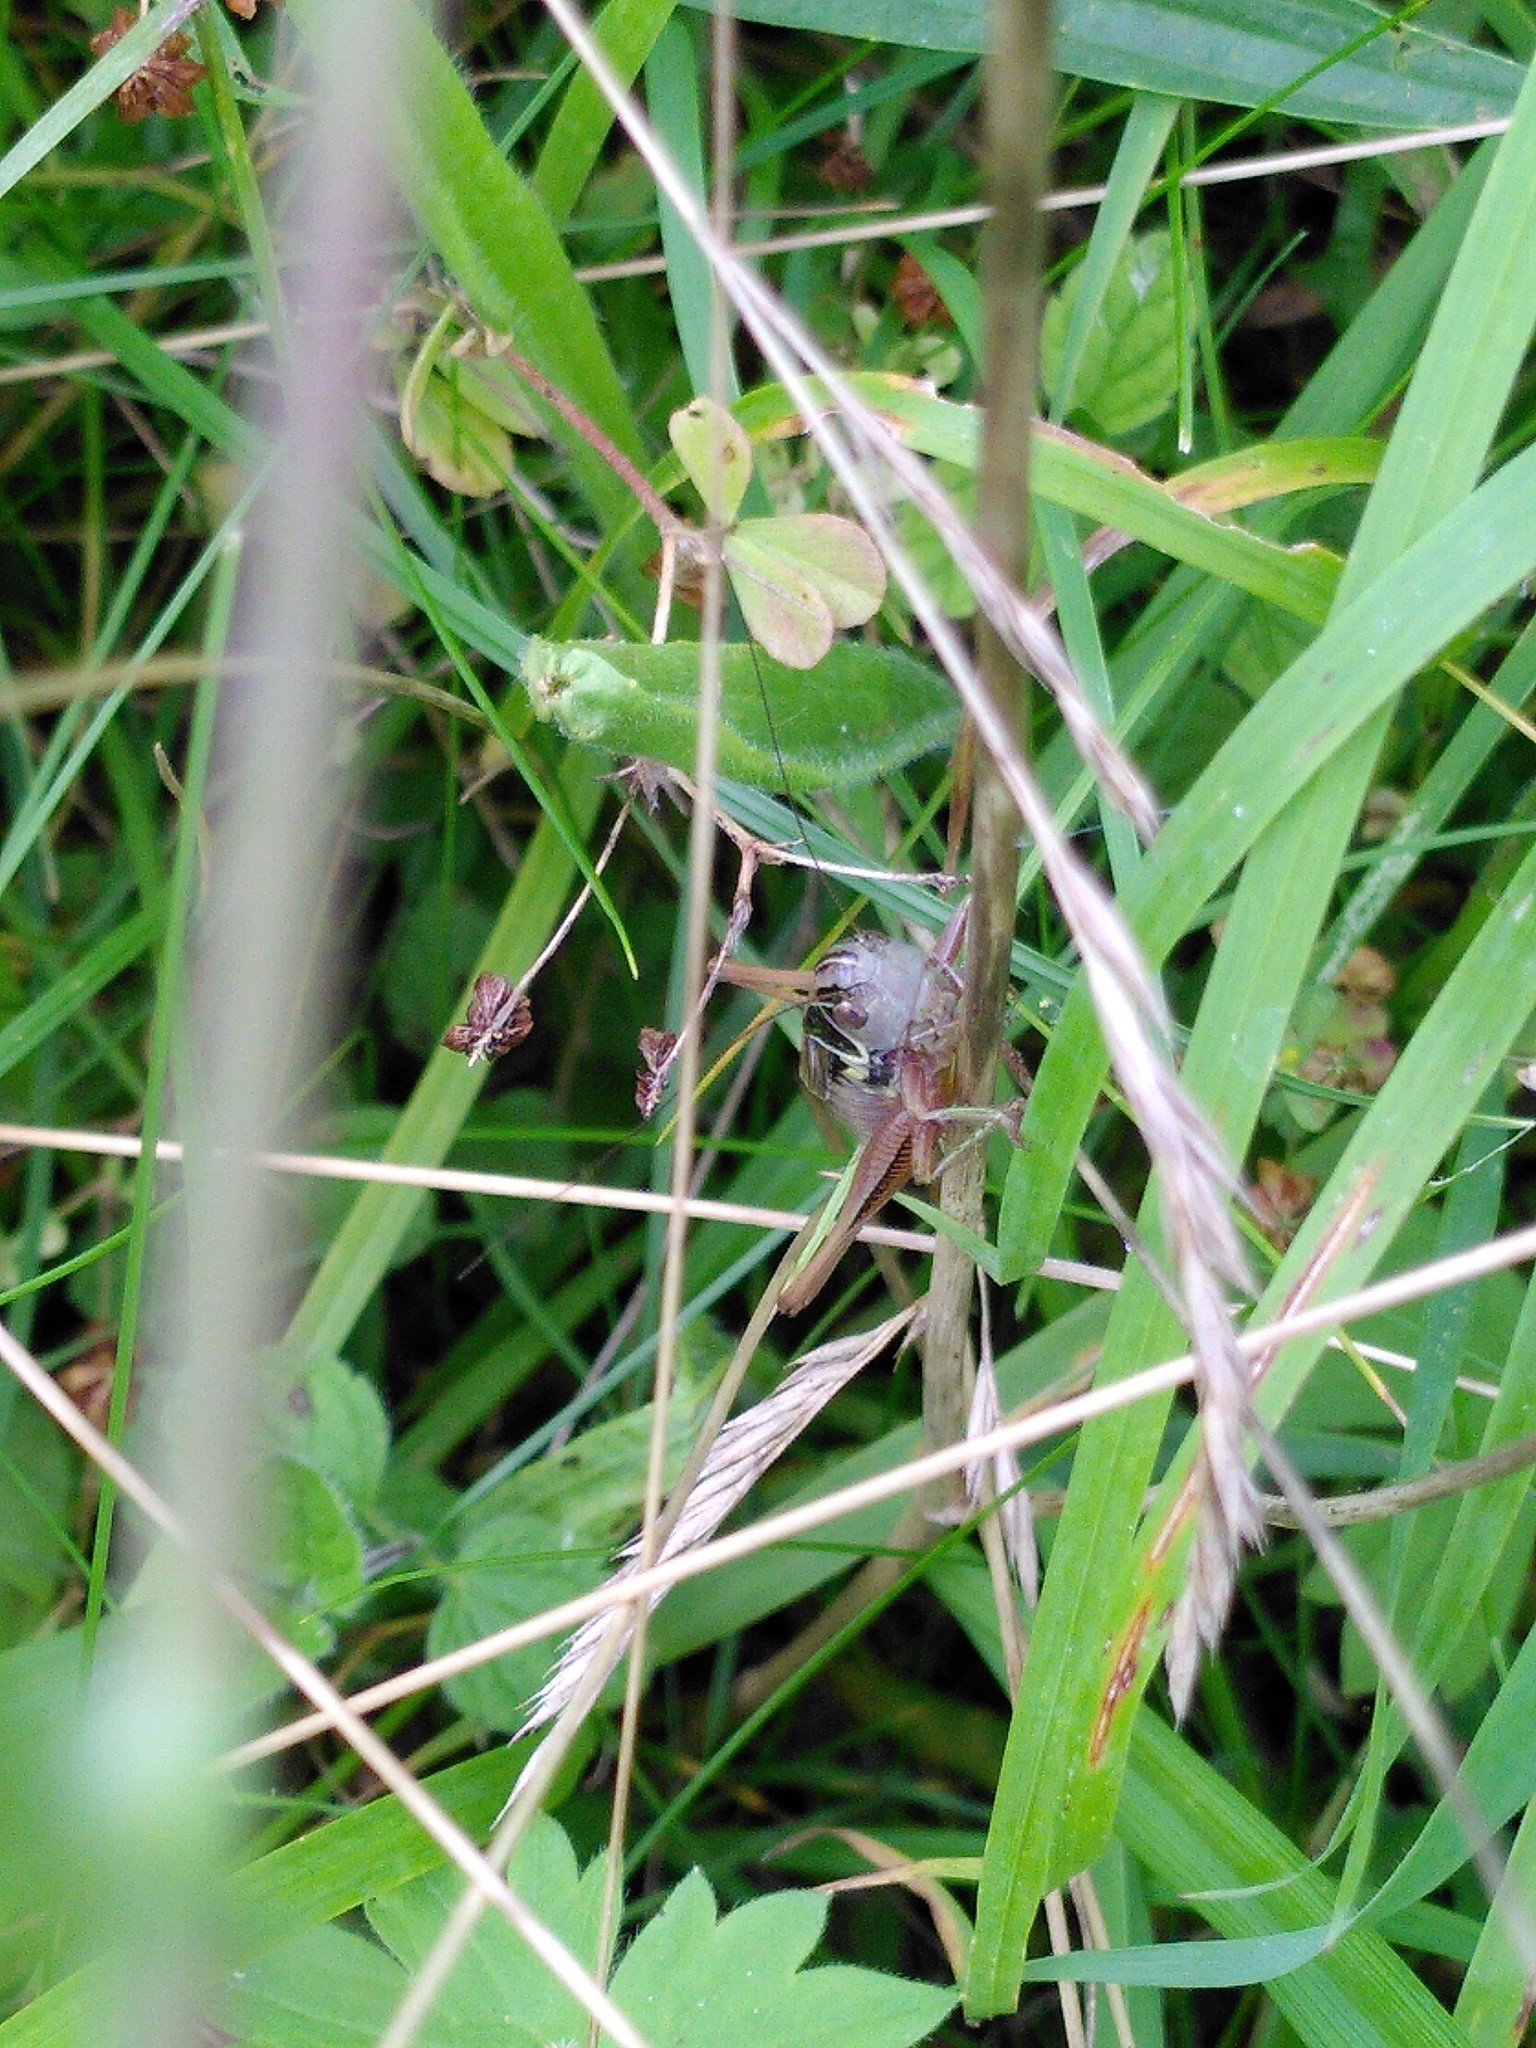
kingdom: Animalia
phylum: Arthropoda
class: Insecta
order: Orthoptera
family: Tettigoniidae
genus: Roeseliana
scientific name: Roeseliana roeselii
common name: Roesel's bush cricket
